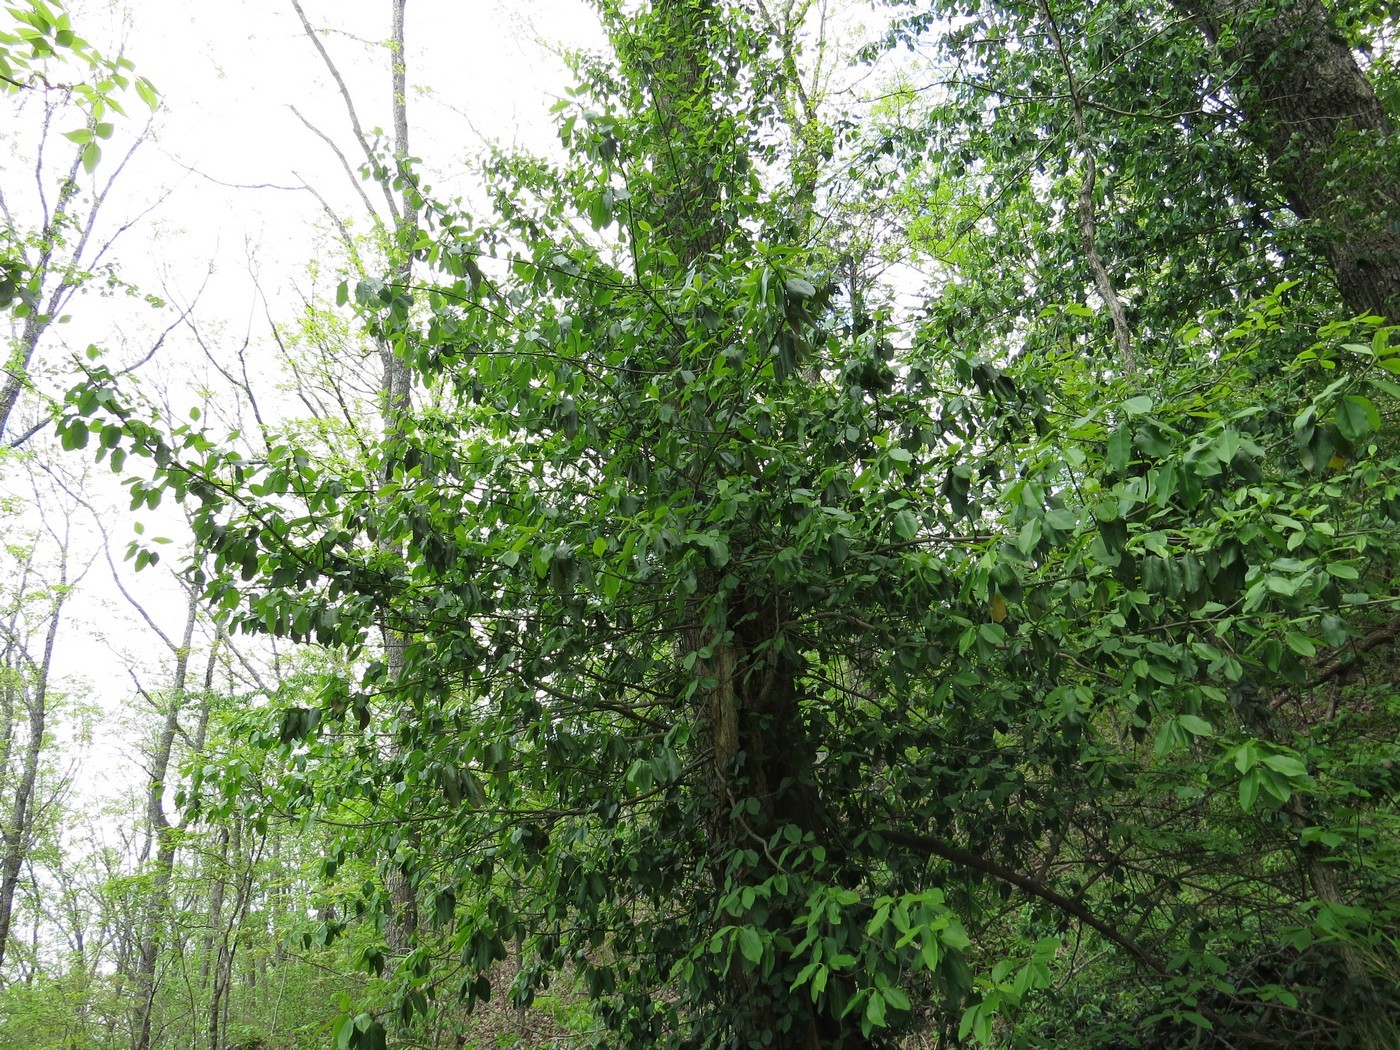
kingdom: Plantae
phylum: Tracheophyta
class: Magnoliopsida
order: Celastrales
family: Celastraceae
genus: Euonymus
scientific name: Euonymus fortunei
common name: Climbing euonymus
